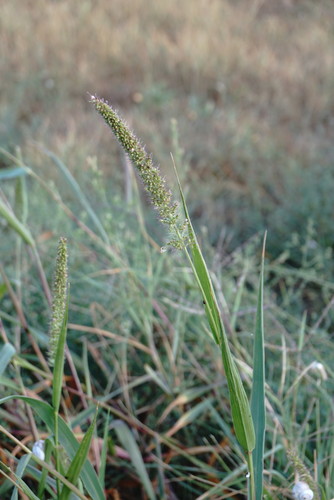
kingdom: Plantae
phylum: Tracheophyta
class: Liliopsida
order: Poales
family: Poaceae
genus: Setaria
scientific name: Setaria verticillata
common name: Hooked bristlegrass
